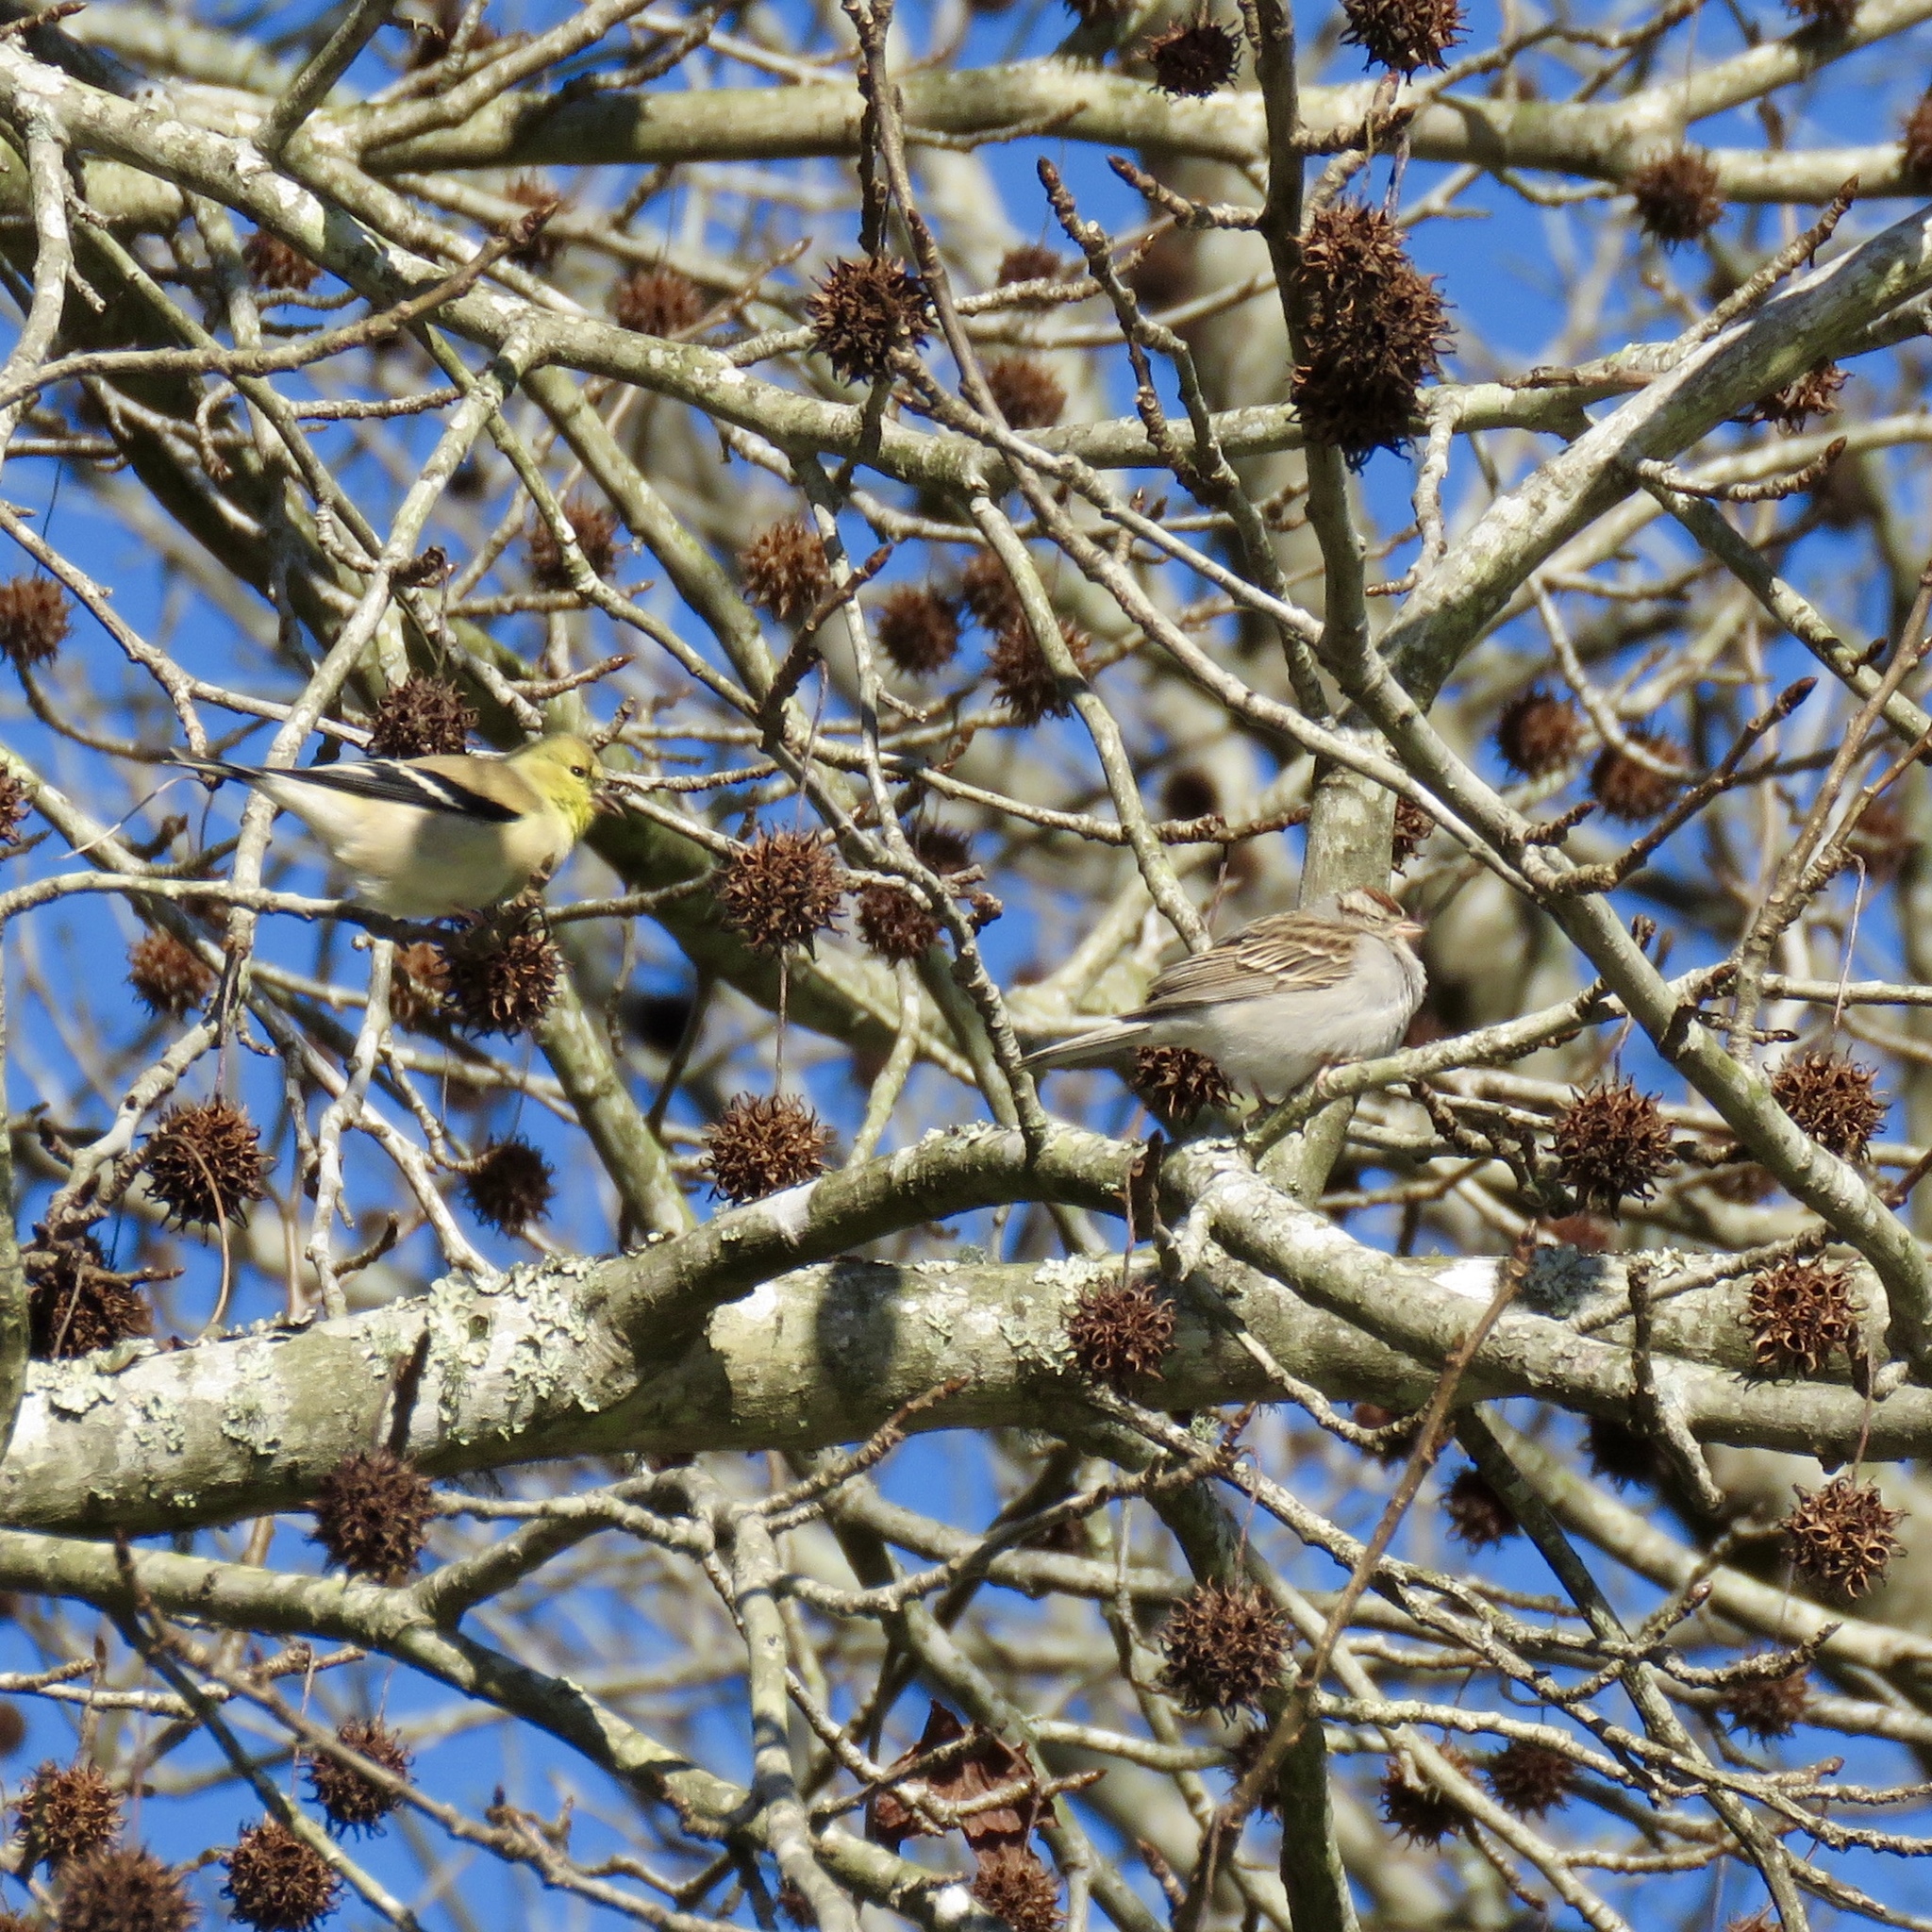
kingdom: Animalia
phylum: Chordata
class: Aves
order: Passeriformes
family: Fringillidae
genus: Spinus
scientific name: Spinus tristis
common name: American goldfinch
